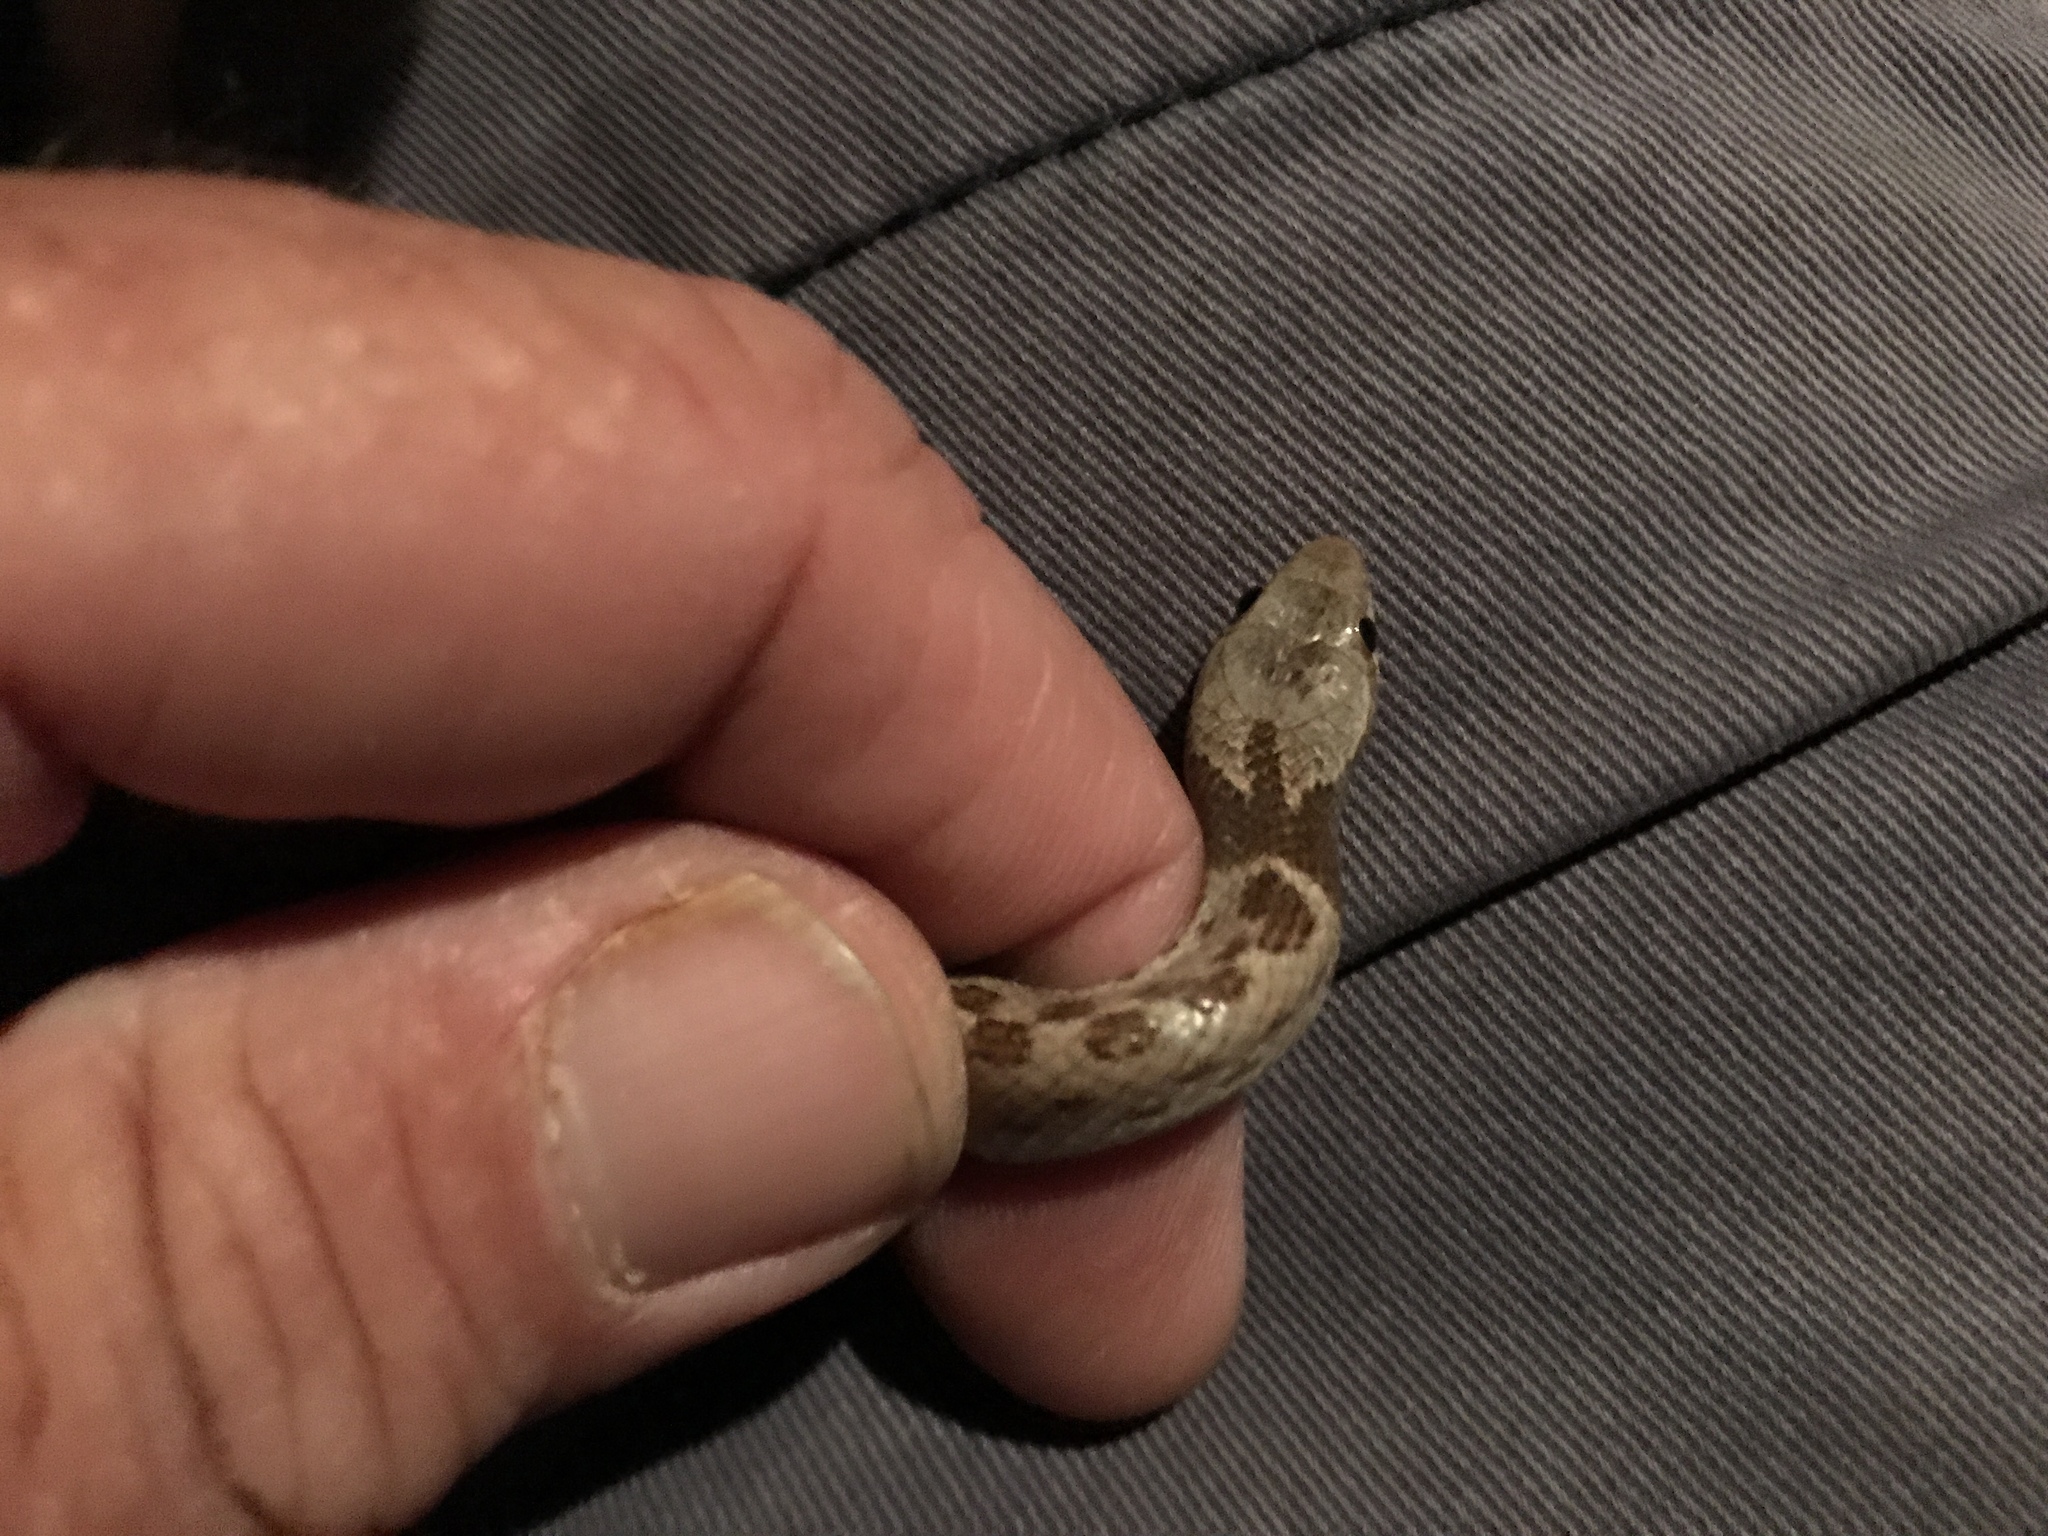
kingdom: Animalia
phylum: Chordata
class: Squamata
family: Colubridae
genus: Hypsiglena
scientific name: Hypsiglena chlorophaea
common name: Desert nightsnake
